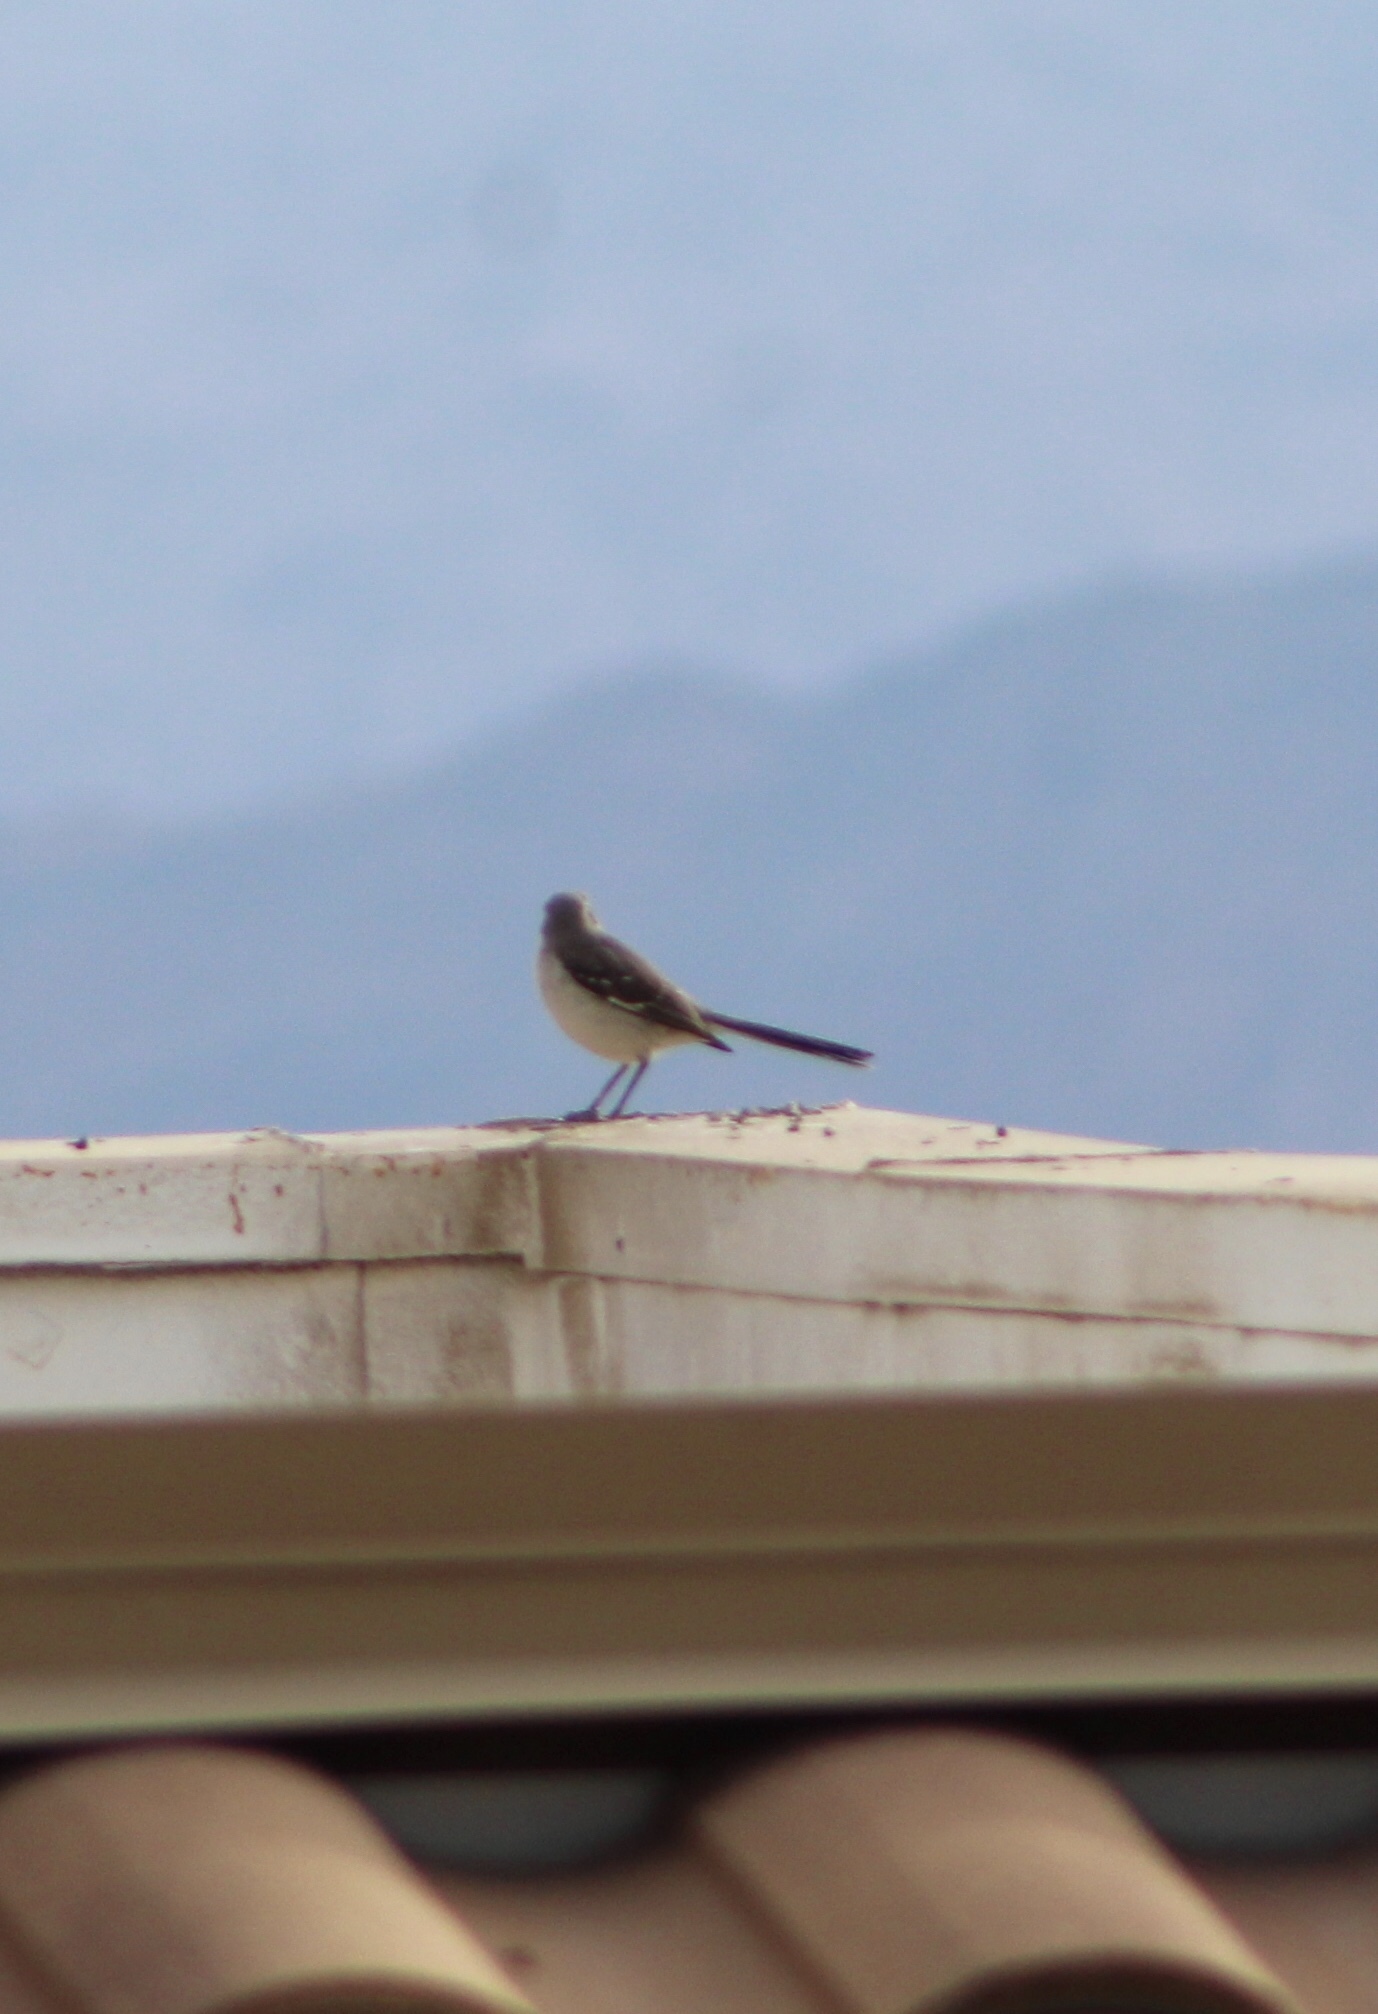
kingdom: Animalia
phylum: Chordata
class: Aves
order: Passeriformes
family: Mimidae
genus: Mimus
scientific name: Mimus polyglottos
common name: Northern mockingbird
